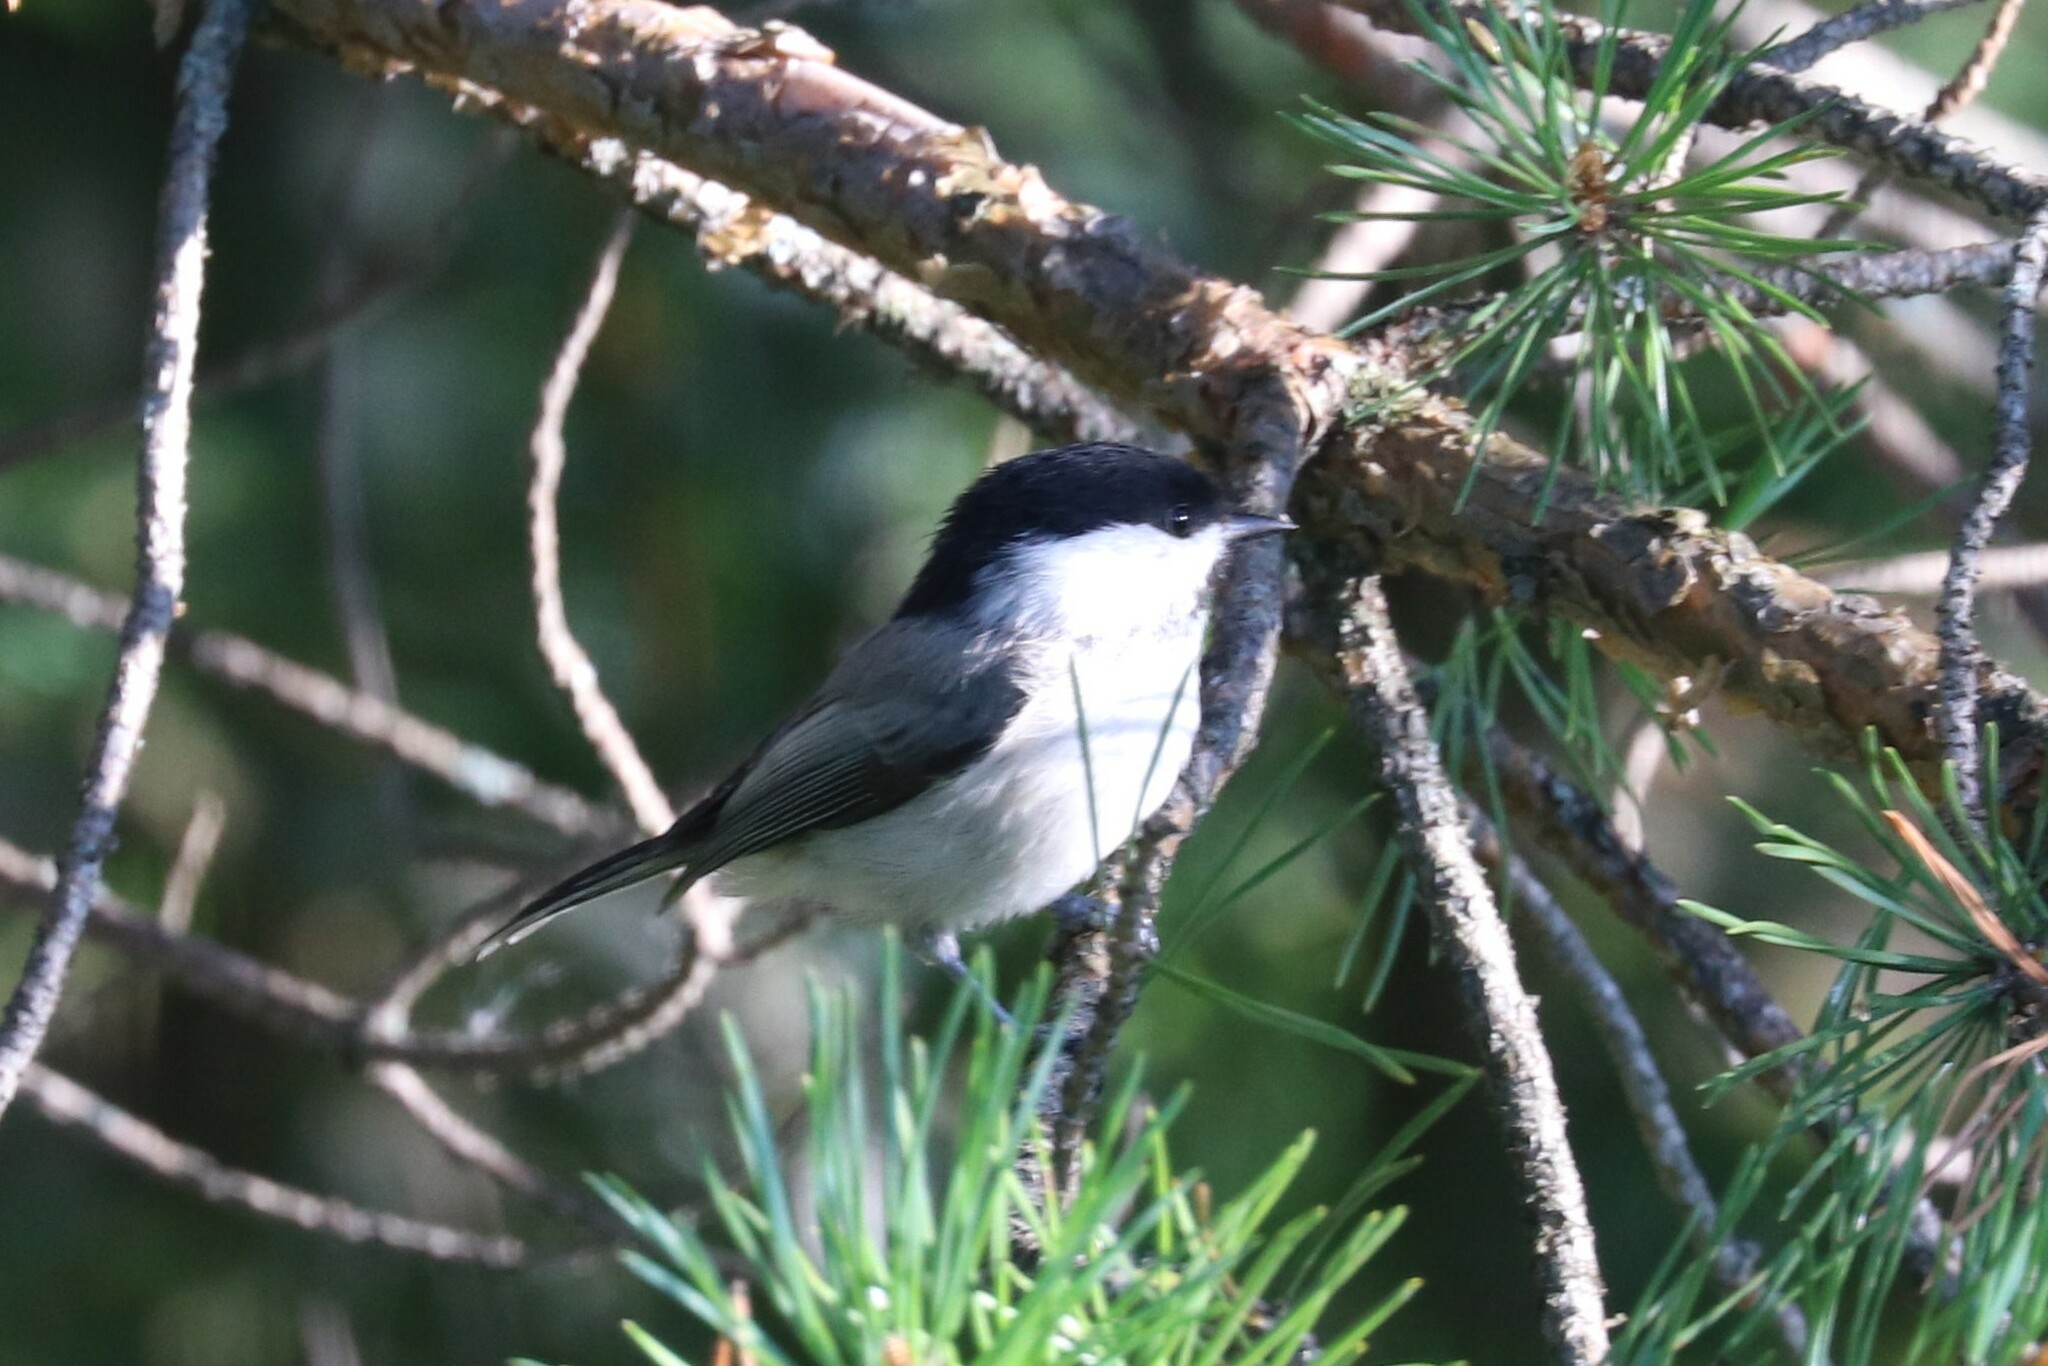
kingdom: Animalia
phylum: Chordata
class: Aves
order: Passeriformes
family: Paridae
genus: Poecile
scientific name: Poecile montanus
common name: Willow tit
